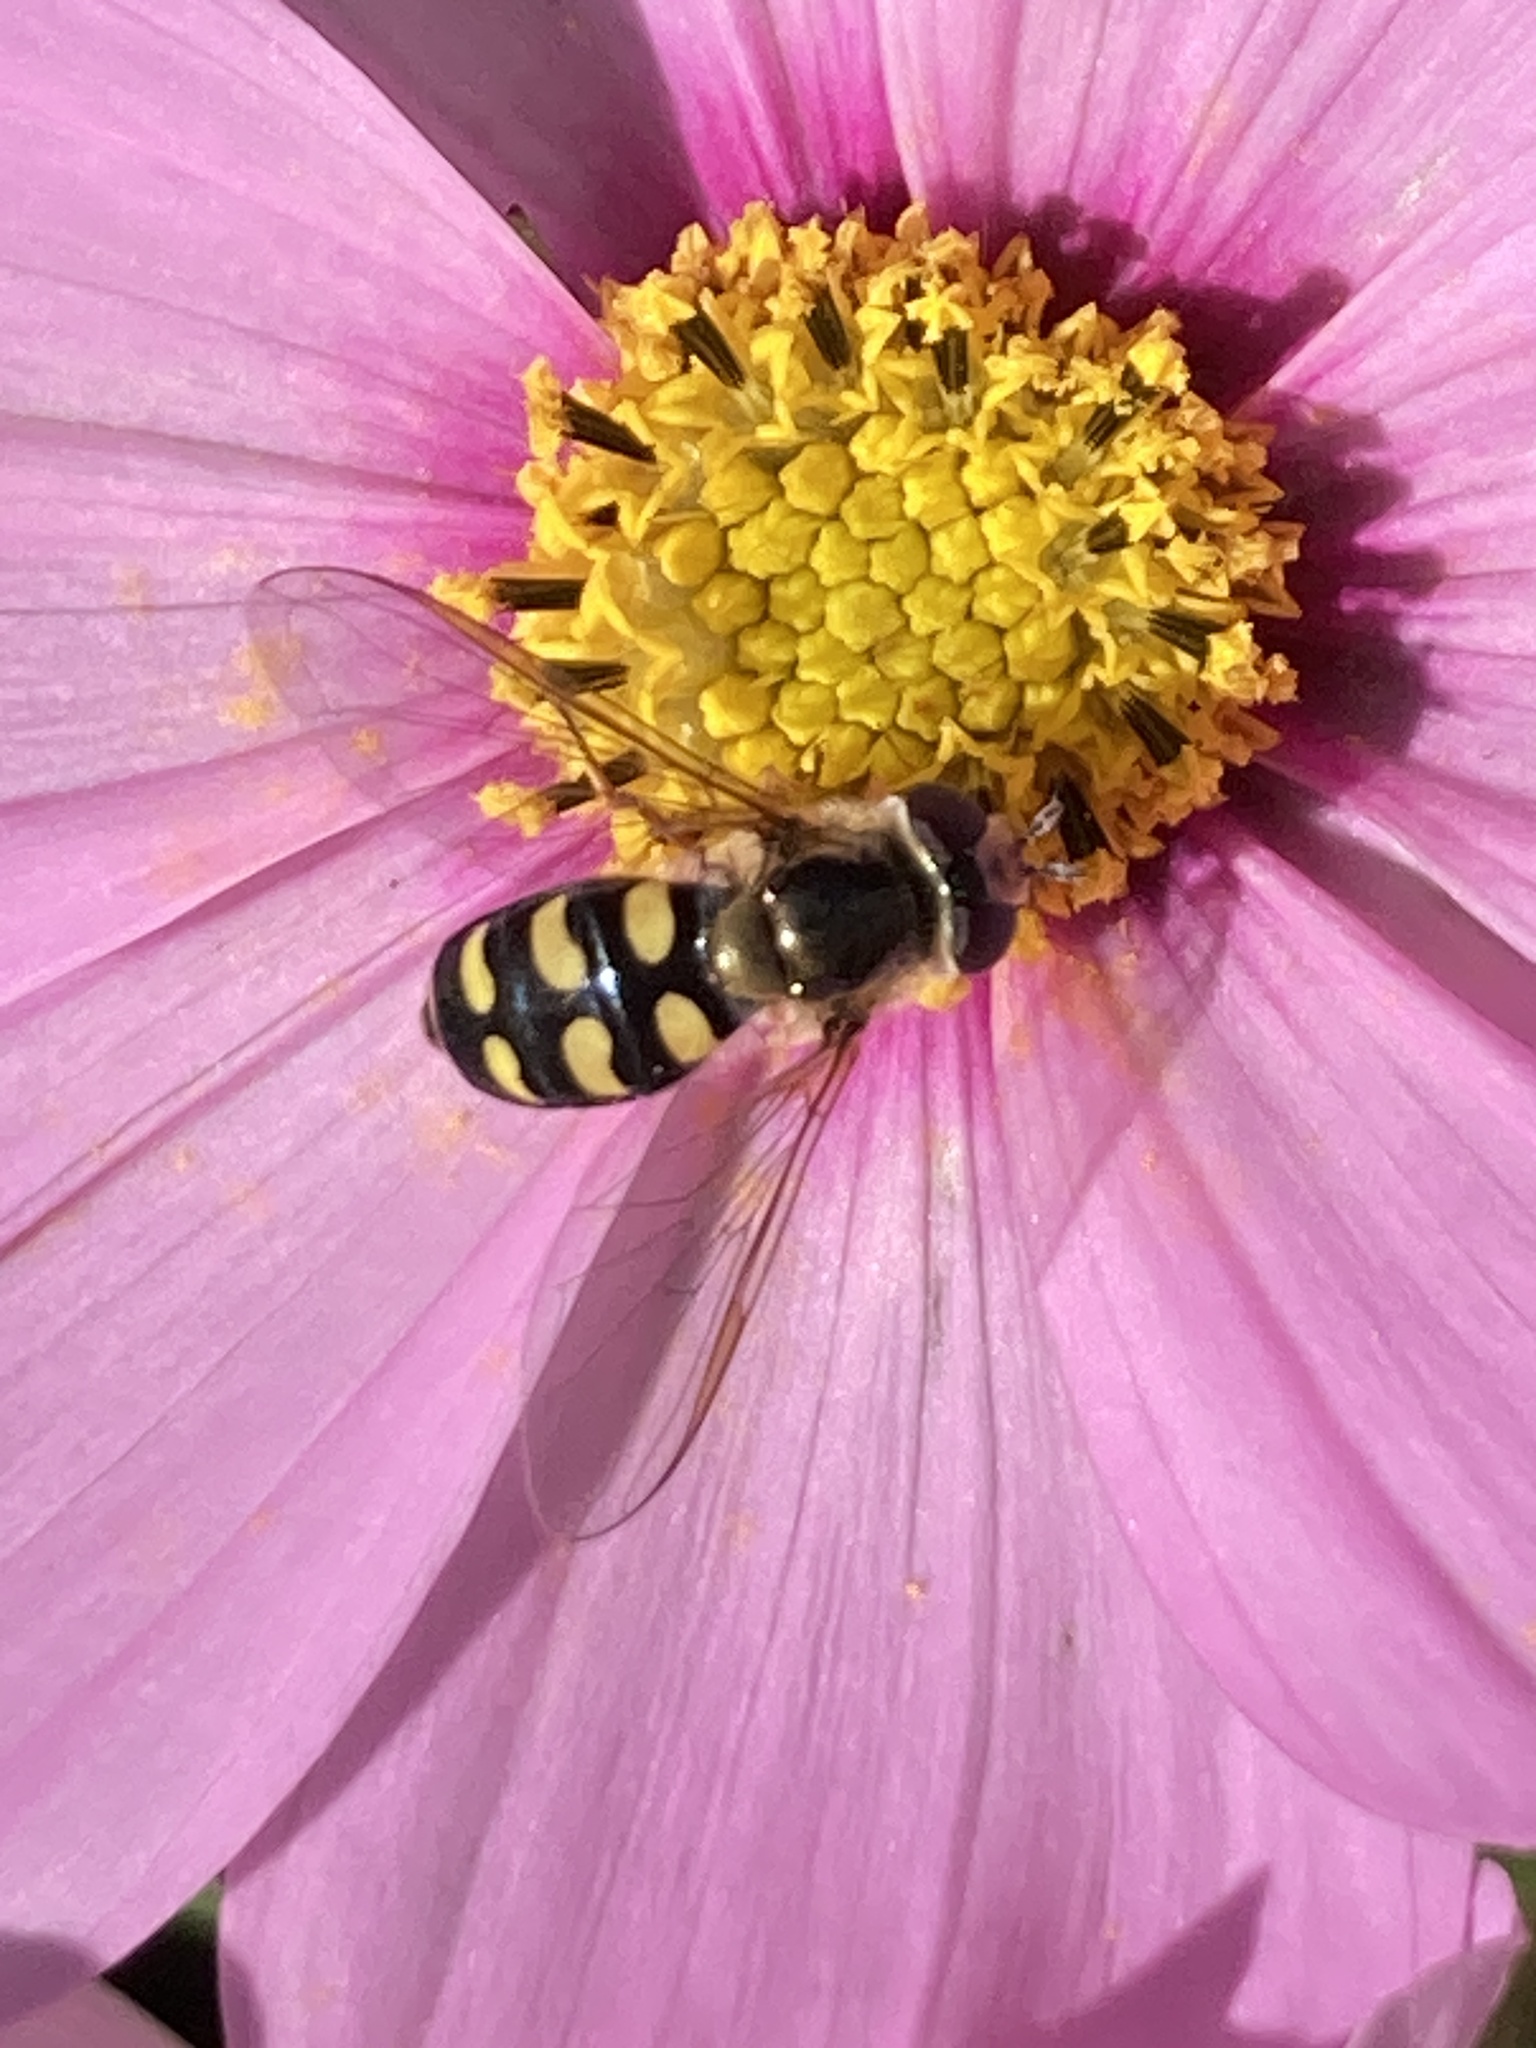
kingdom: Animalia
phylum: Arthropoda
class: Insecta
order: Diptera
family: Syrphidae
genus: Eupeodes
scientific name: Eupeodes luniger
